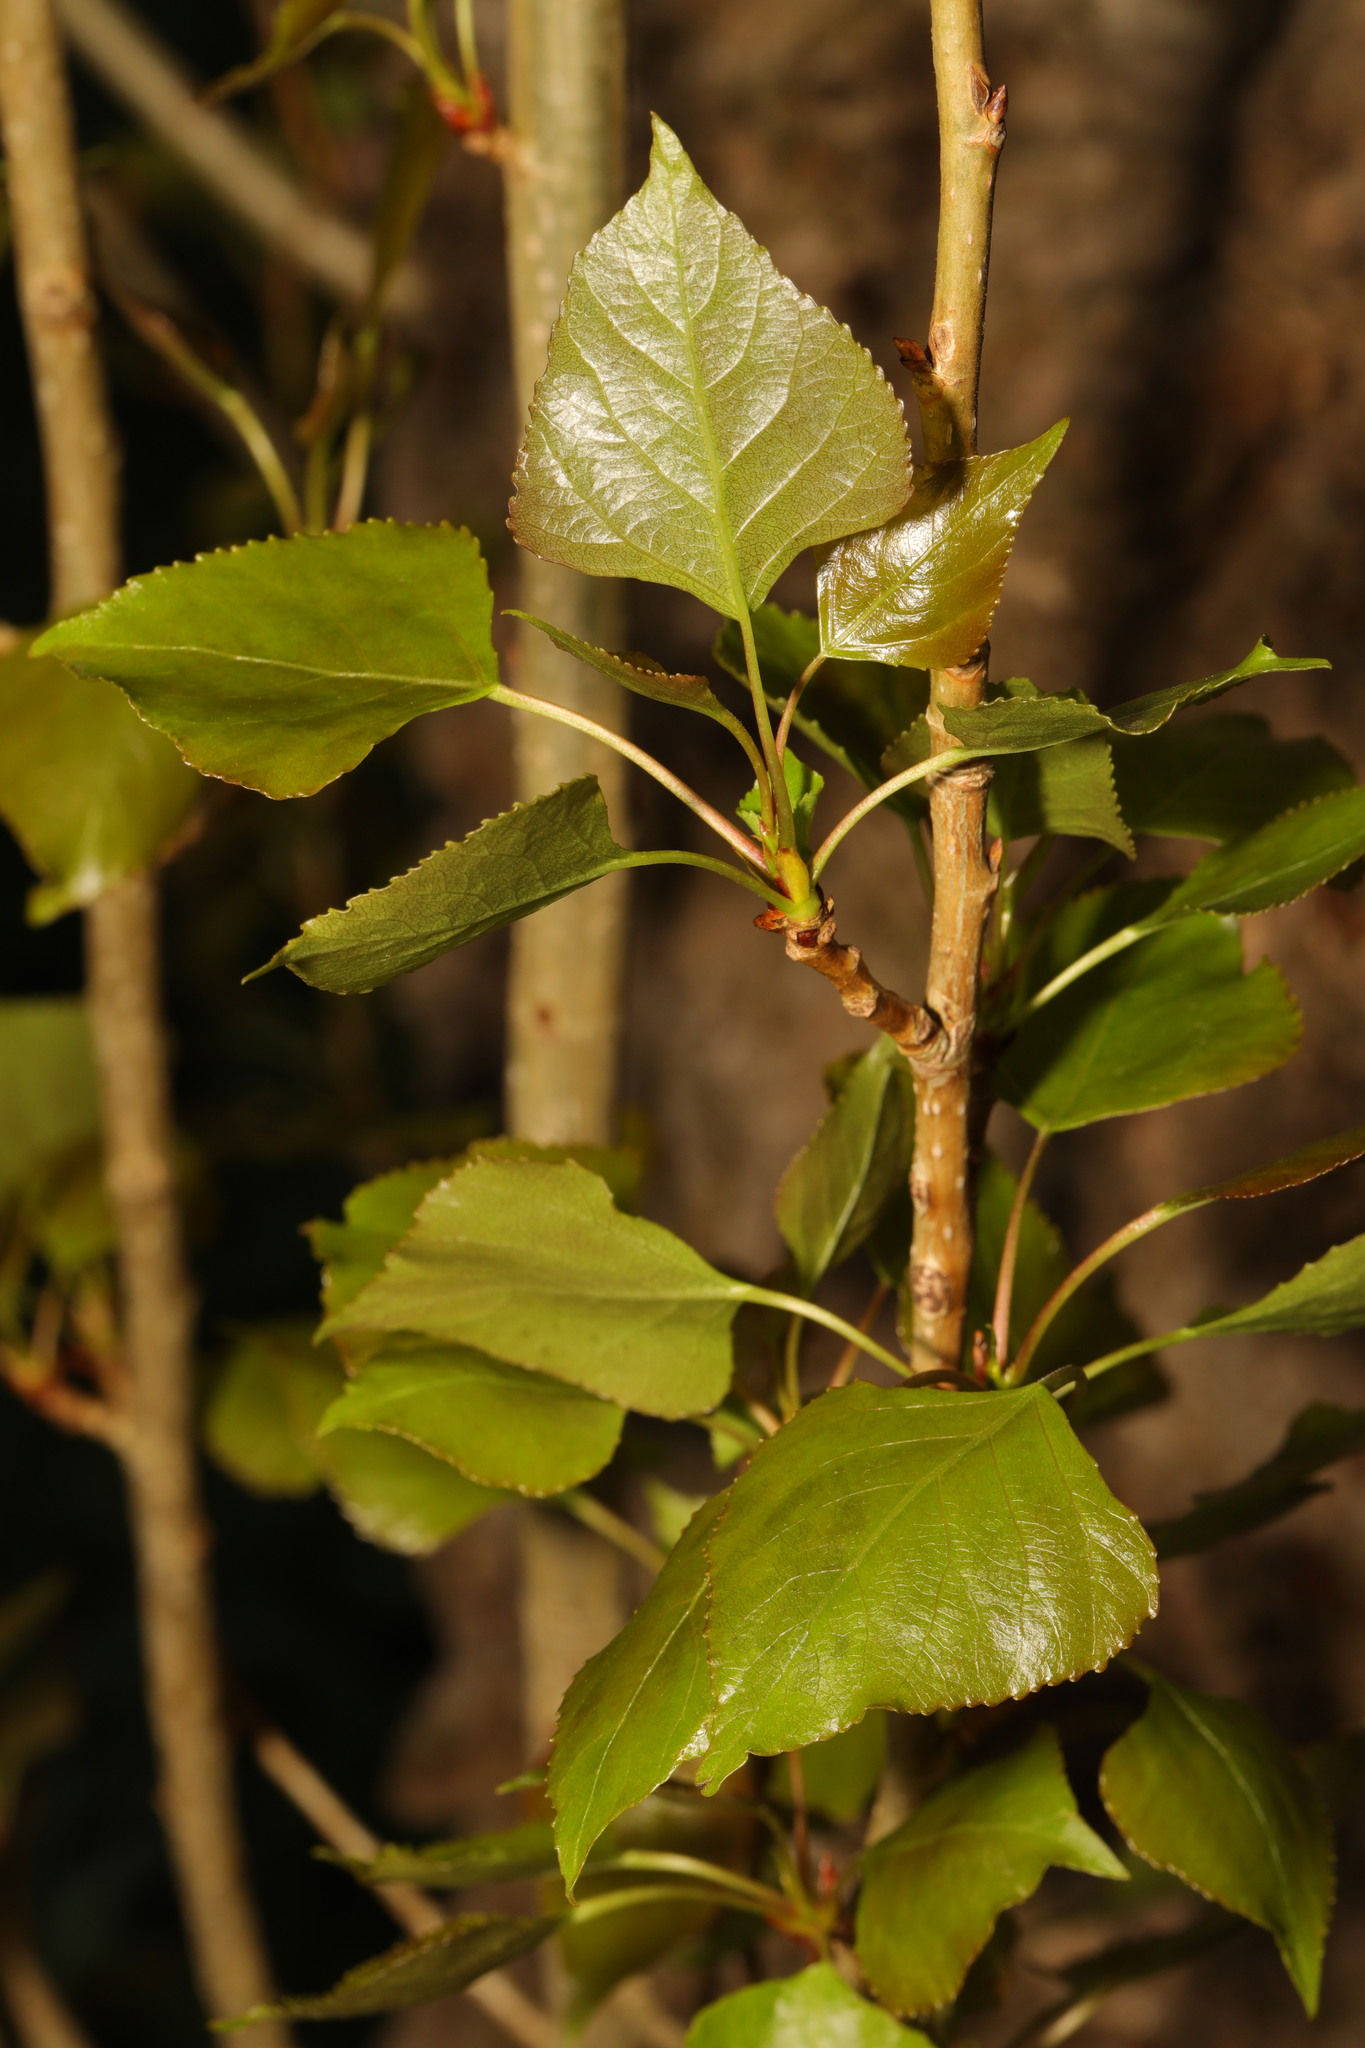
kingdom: Plantae
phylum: Tracheophyta
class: Magnoliopsida
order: Malpighiales
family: Salicaceae
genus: Populus
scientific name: Populus nigra
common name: Black poplar
